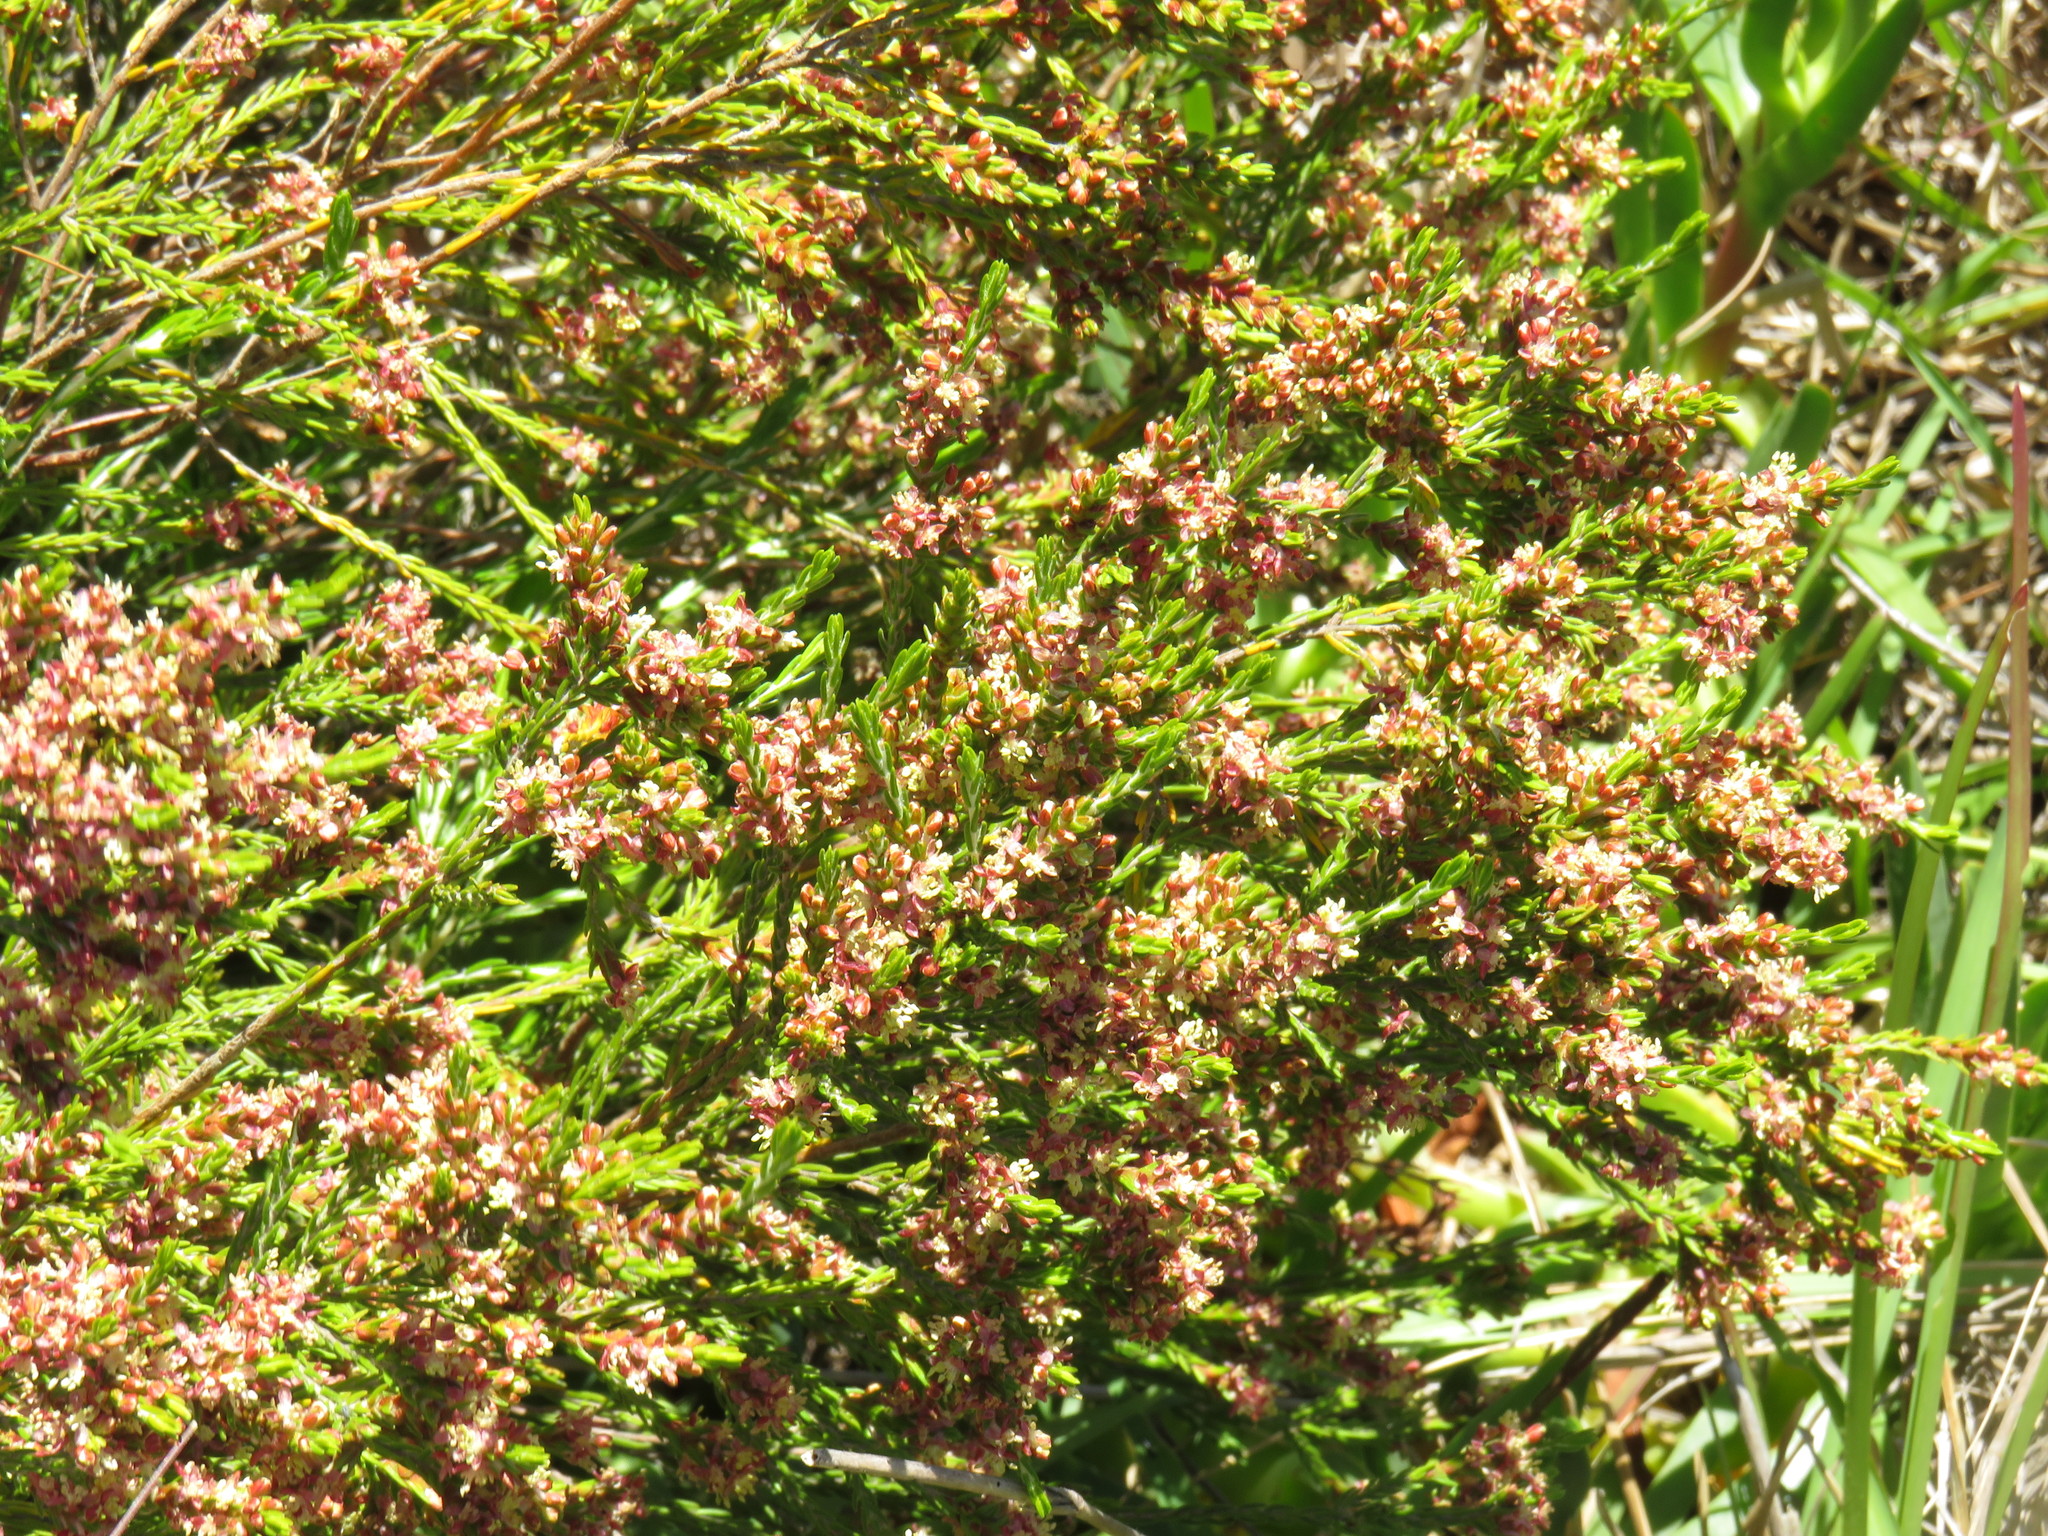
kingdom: Plantae
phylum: Tracheophyta
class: Magnoliopsida
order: Malvales
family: Thymelaeaceae
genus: Passerina
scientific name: Passerina corymbosa
